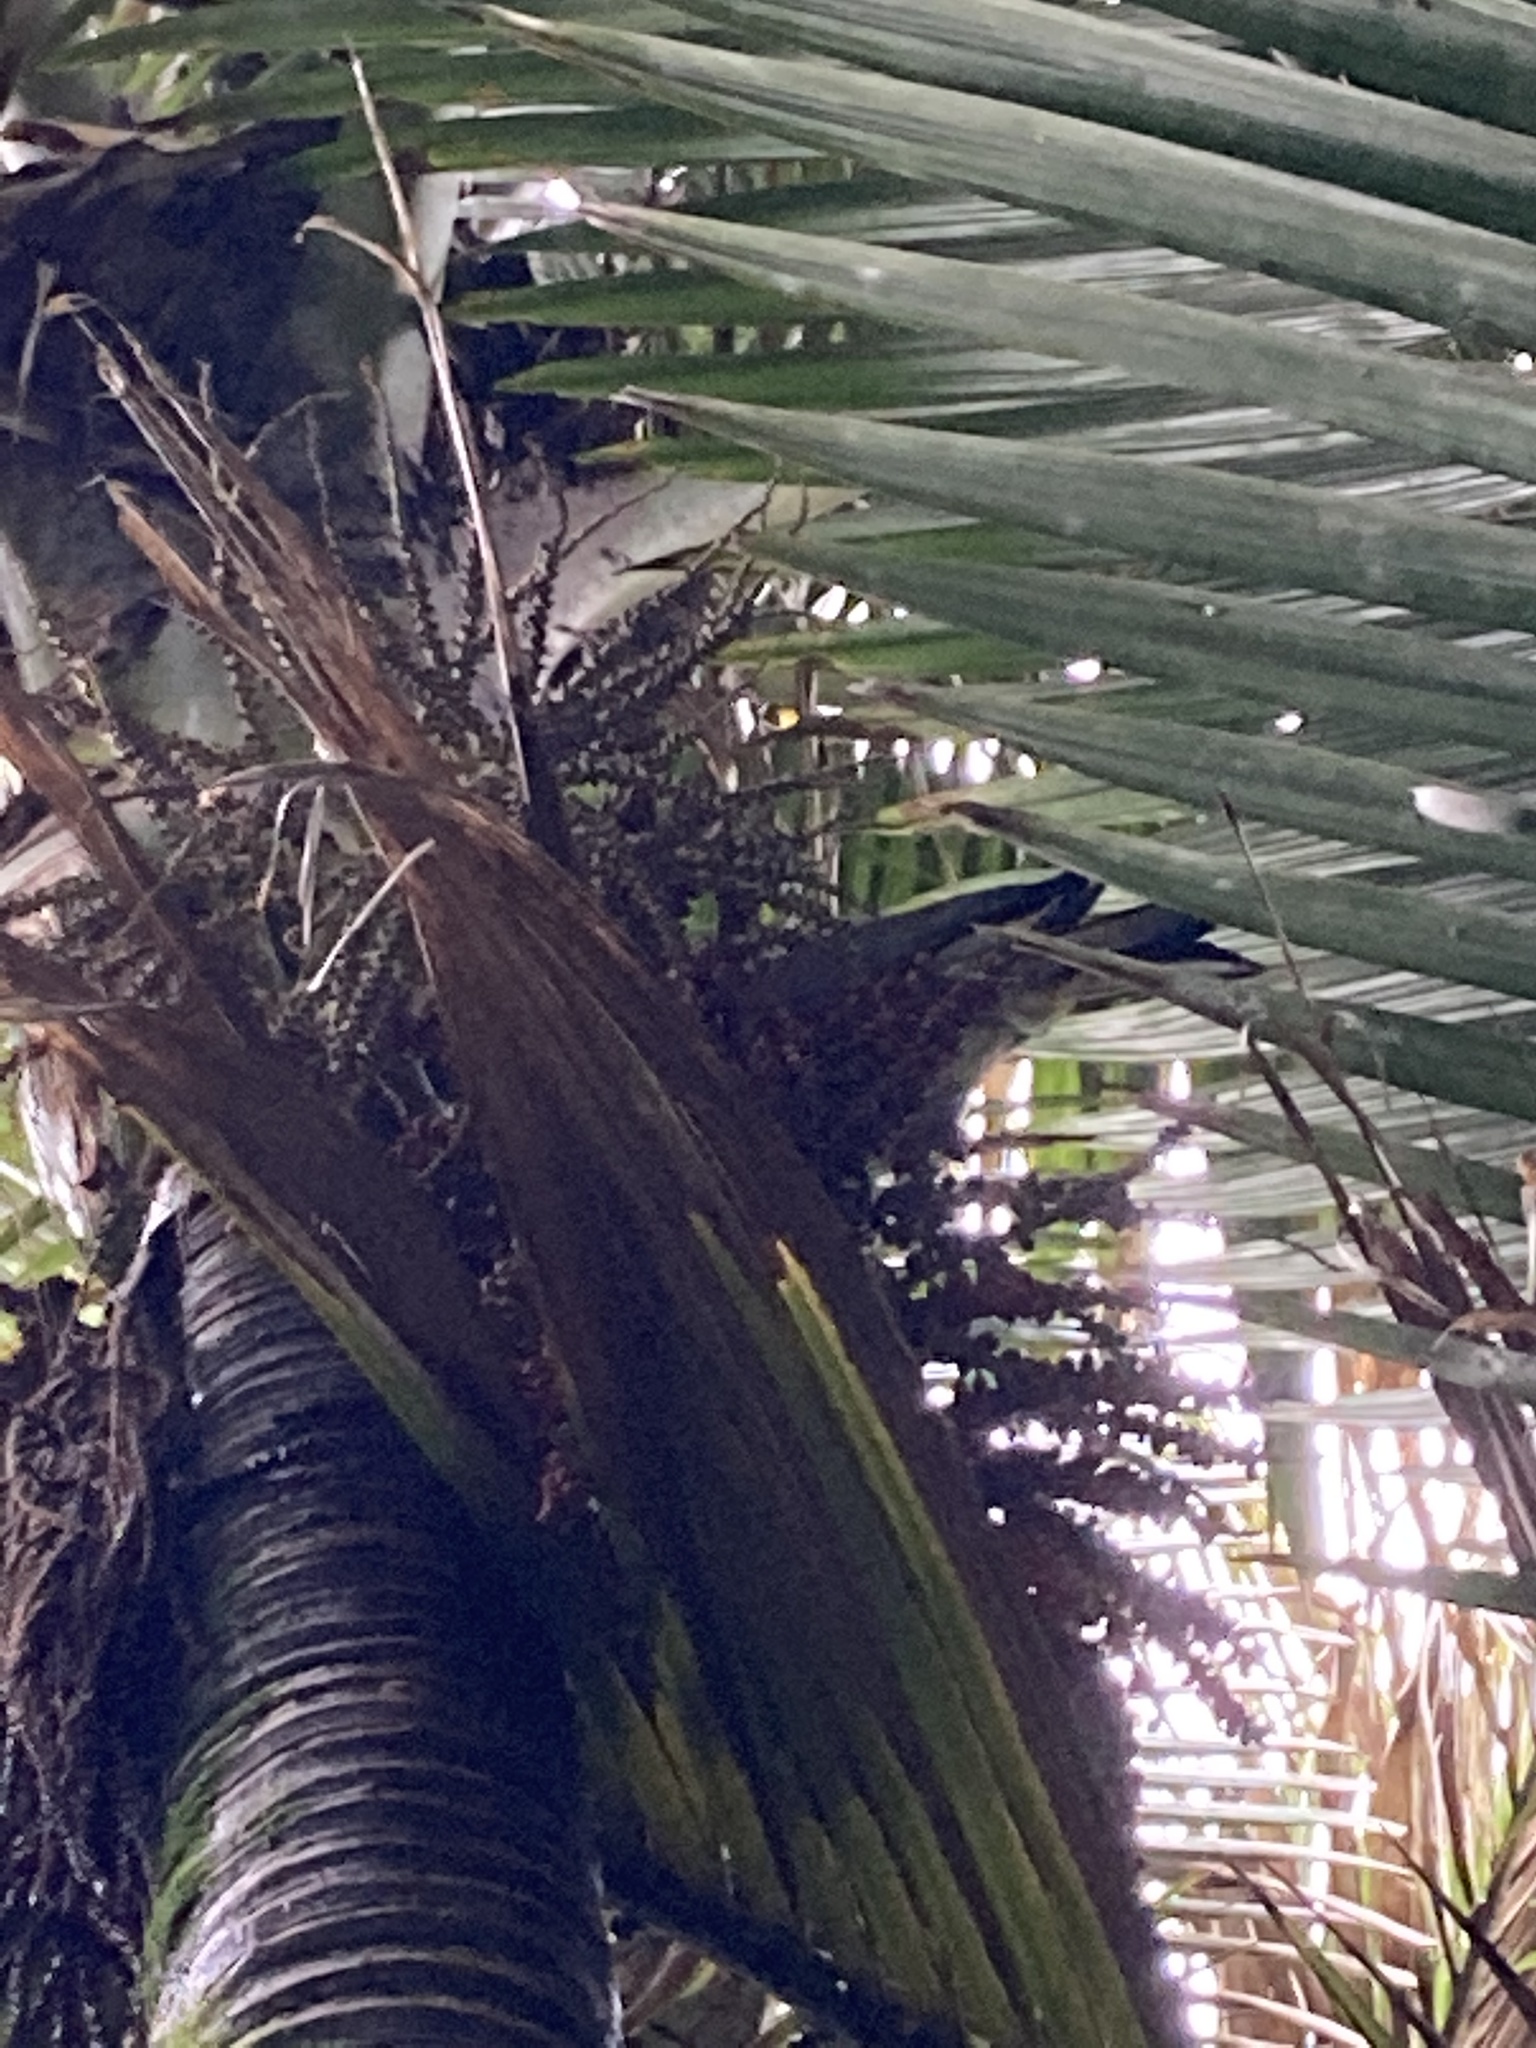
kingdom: Animalia
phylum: Chordata
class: Aves
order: Columbiformes
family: Columbidae
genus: Hemiphaga
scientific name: Hemiphaga novaeseelandiae
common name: New zealand pigeon
